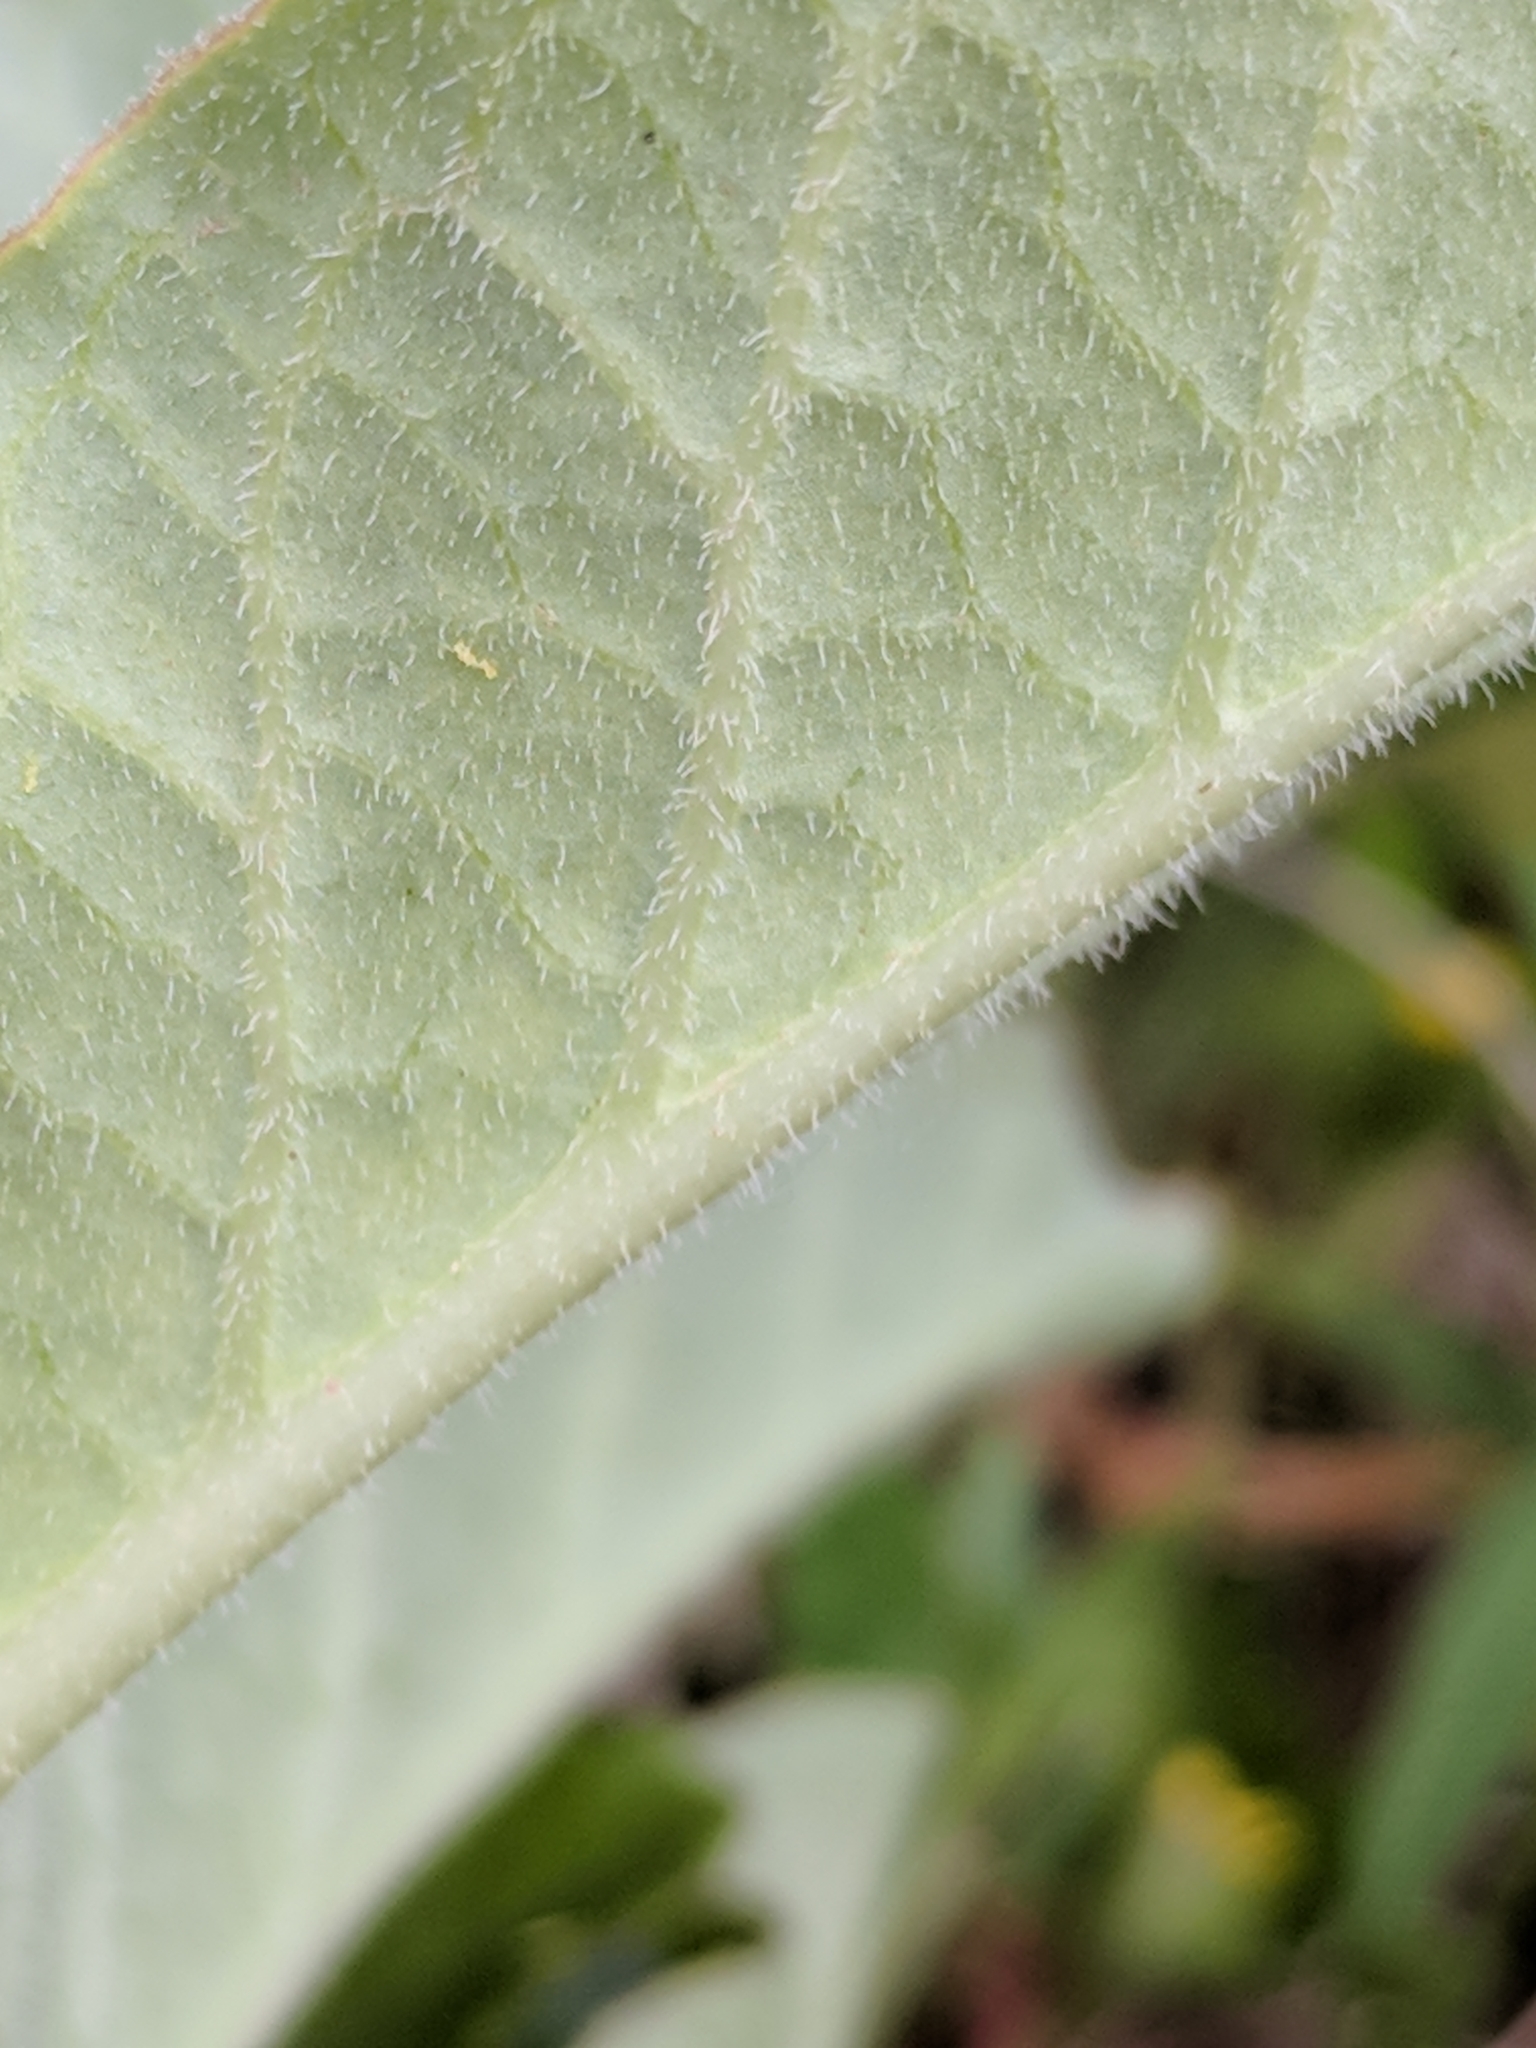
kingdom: Plantae
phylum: Tracheophyta
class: Magnoliopsida
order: Gentianales
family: Apocynaceae
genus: Asclepias
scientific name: Asclepias oenotheroides
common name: Zizotes milkweed
